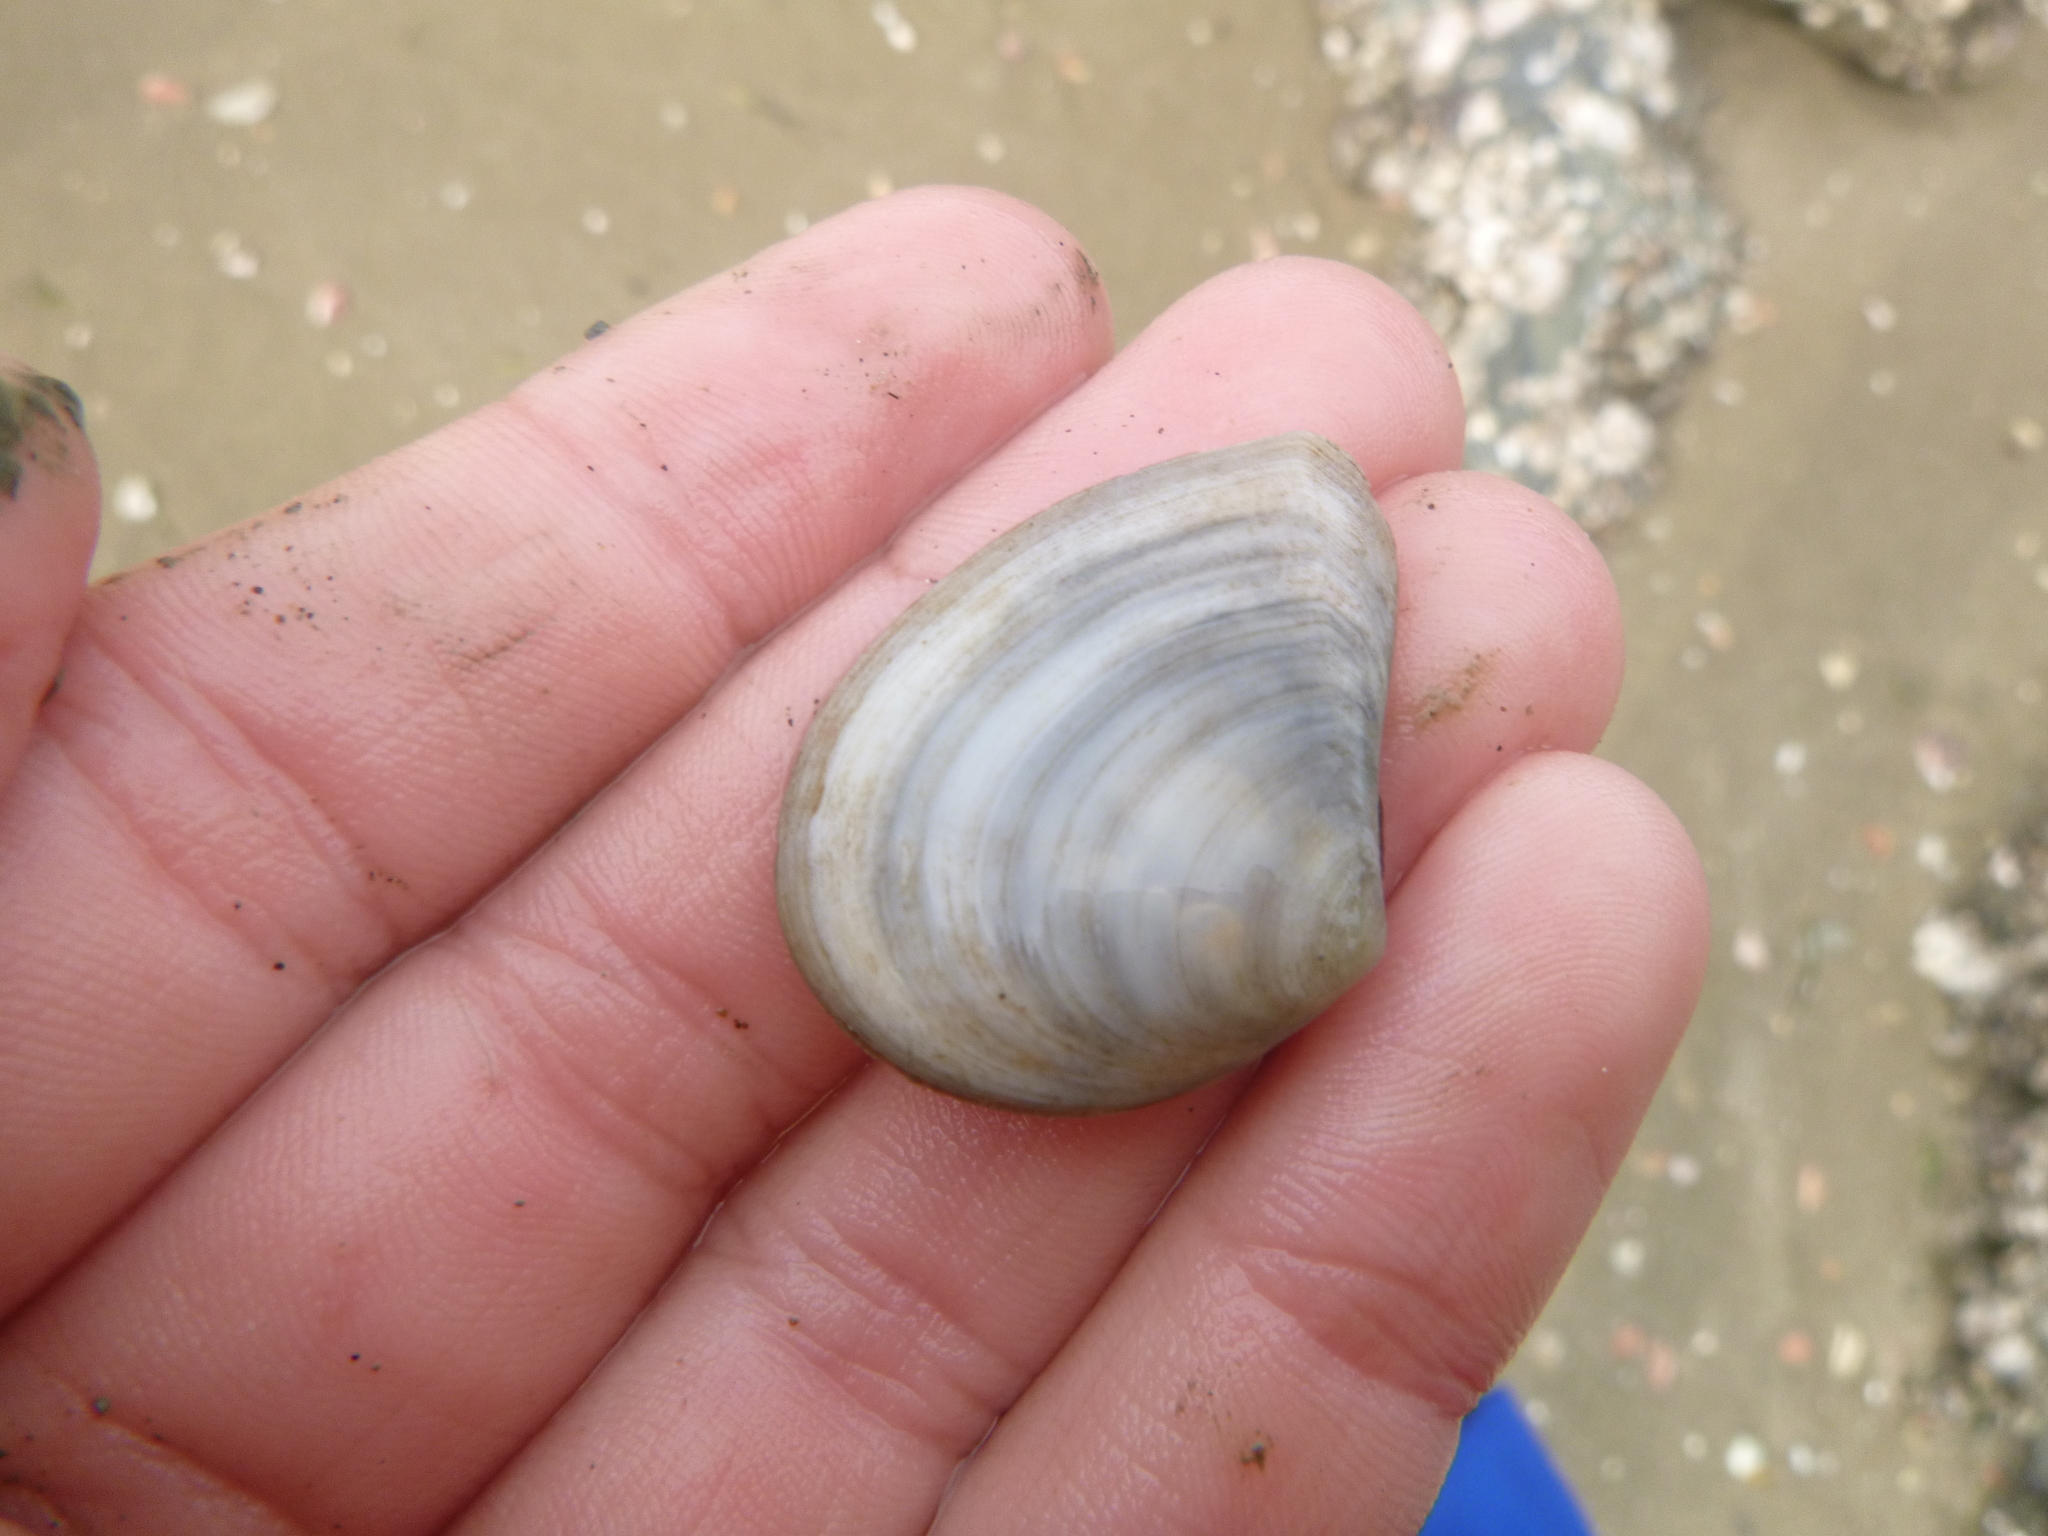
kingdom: Animalia
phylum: Mollusca
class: Bivalvia
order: Cardiida
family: Tellinidae
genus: Macomona
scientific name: Macomona liliana
